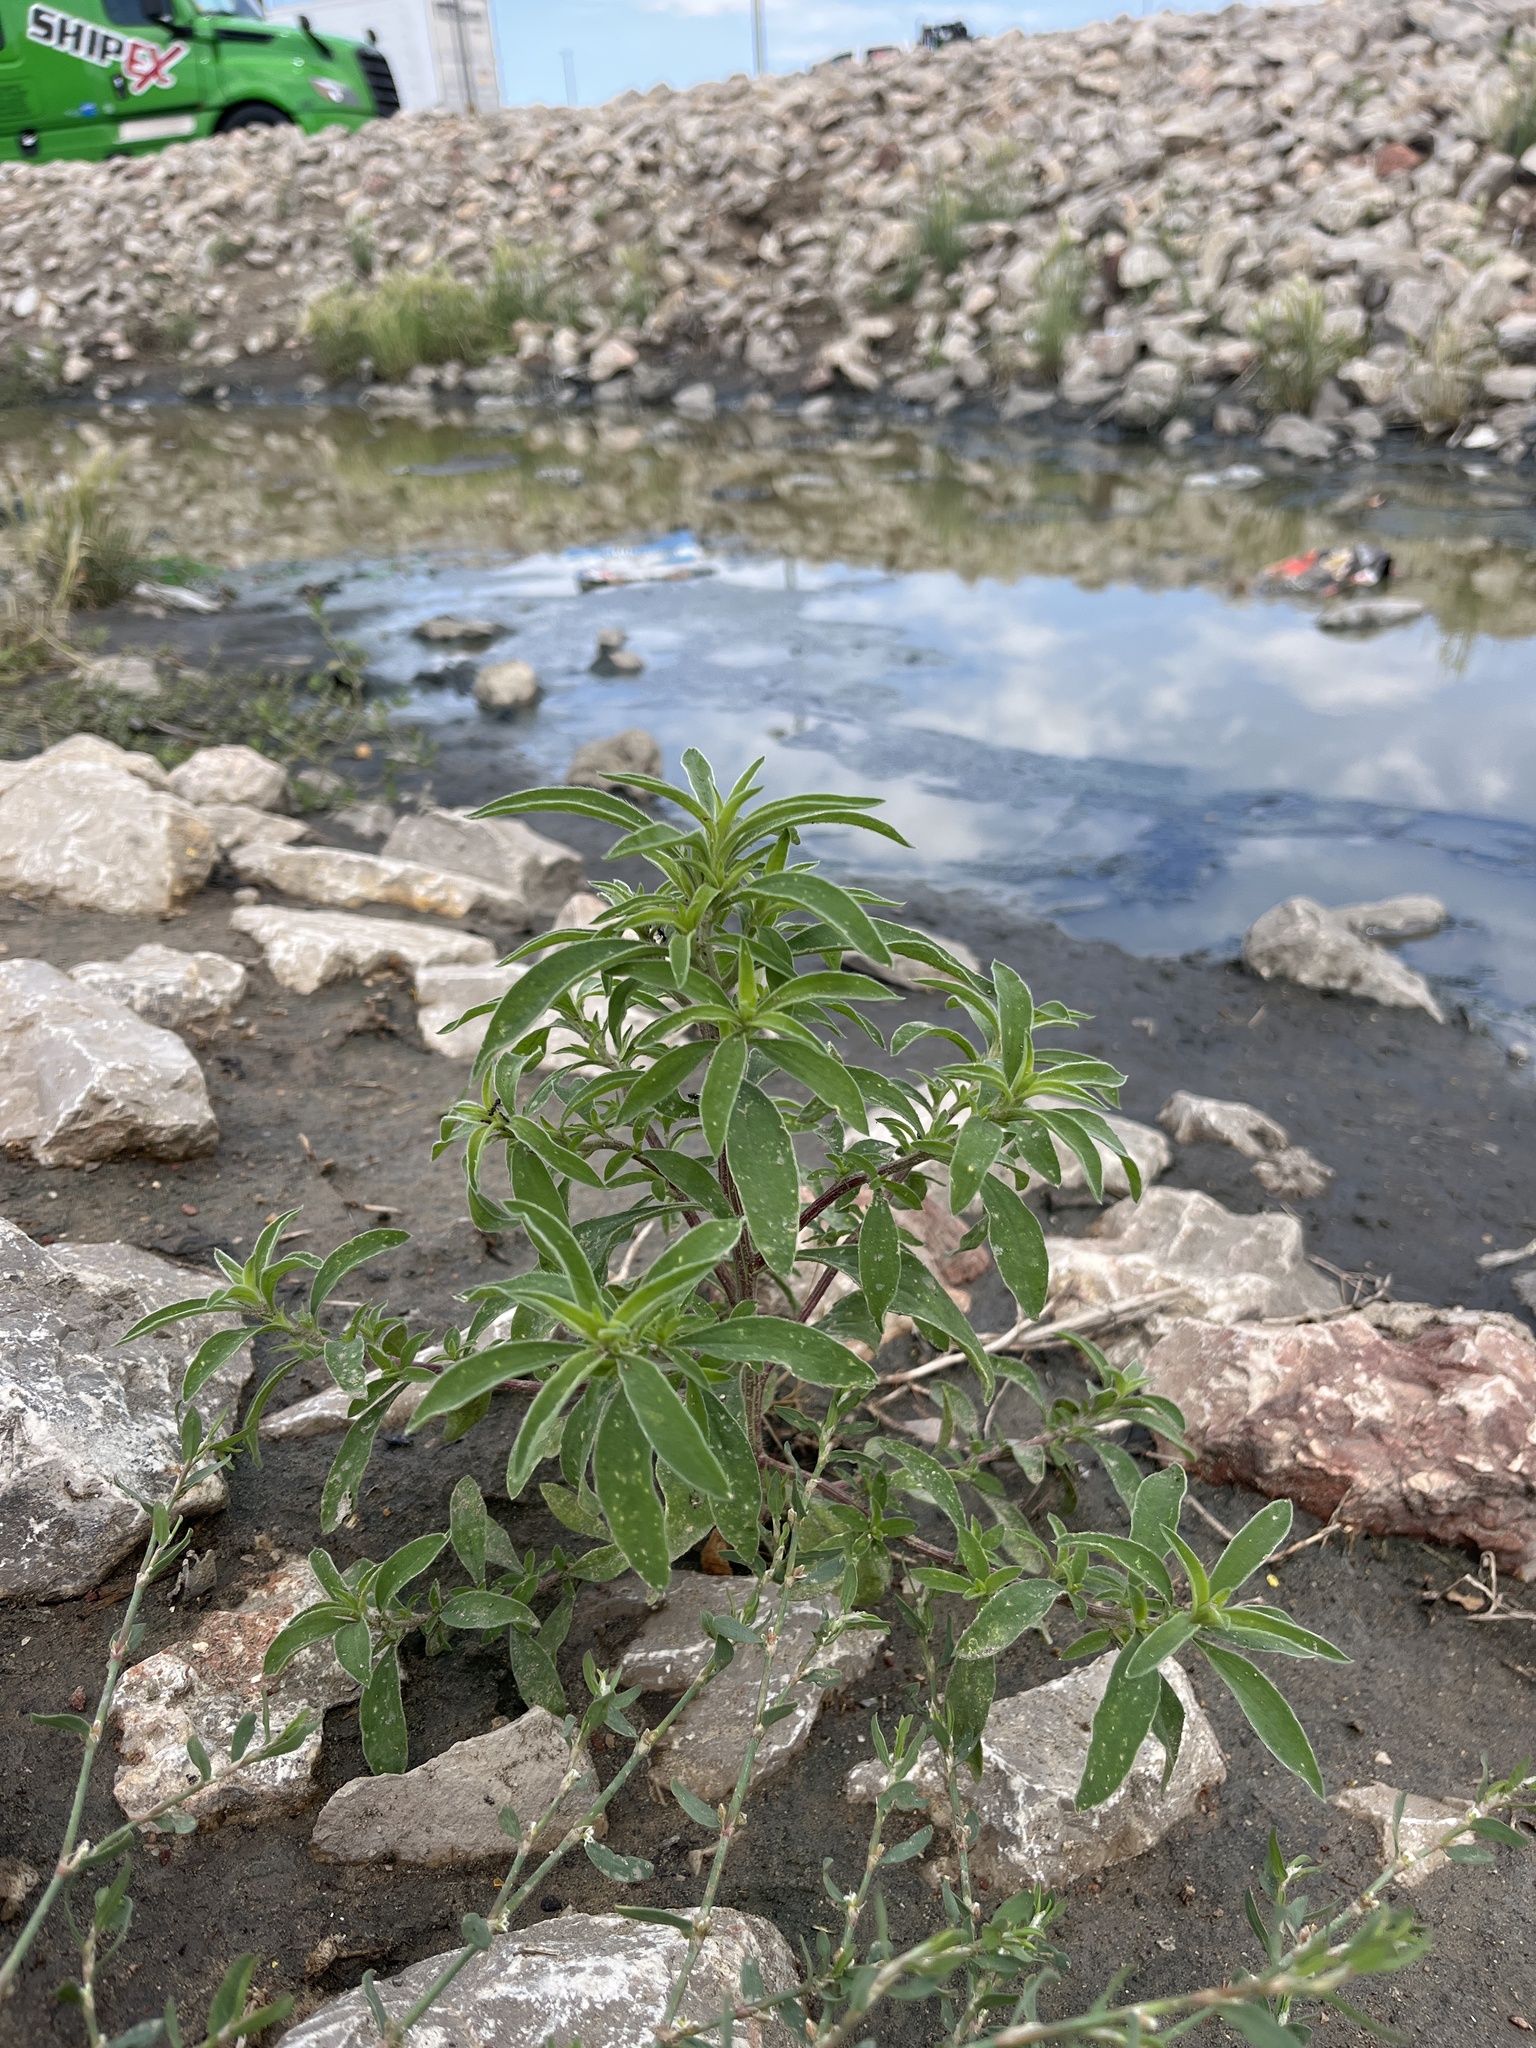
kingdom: Plantae
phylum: Tracheophyta
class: Magnoliopsida
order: Caryophyllales
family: Amaranthaceae
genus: Bassia
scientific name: Bassia scoparia
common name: Belvedere
